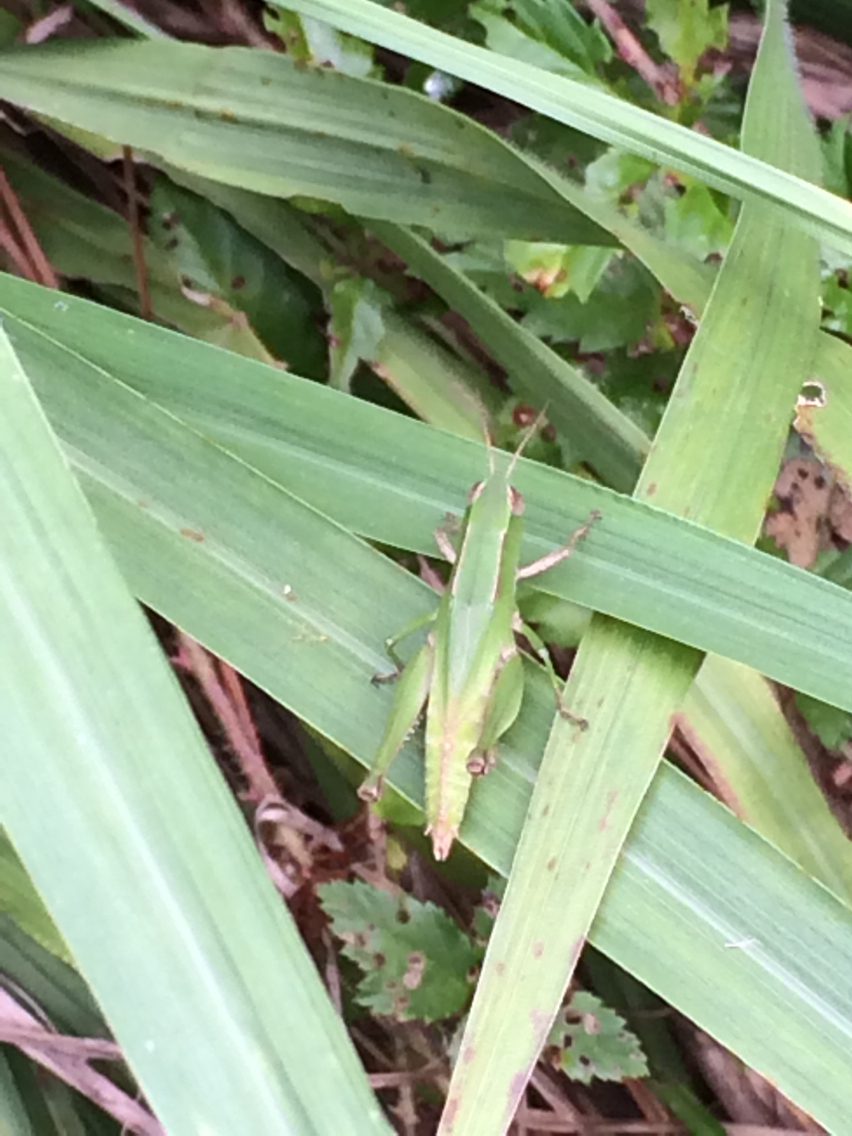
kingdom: Animalia
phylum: Arthropoda
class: Insecta
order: Orthoptera
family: Acrididae
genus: Dichromorpha
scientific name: Dichromorpha viridis
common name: Short-winged green grasshopper
